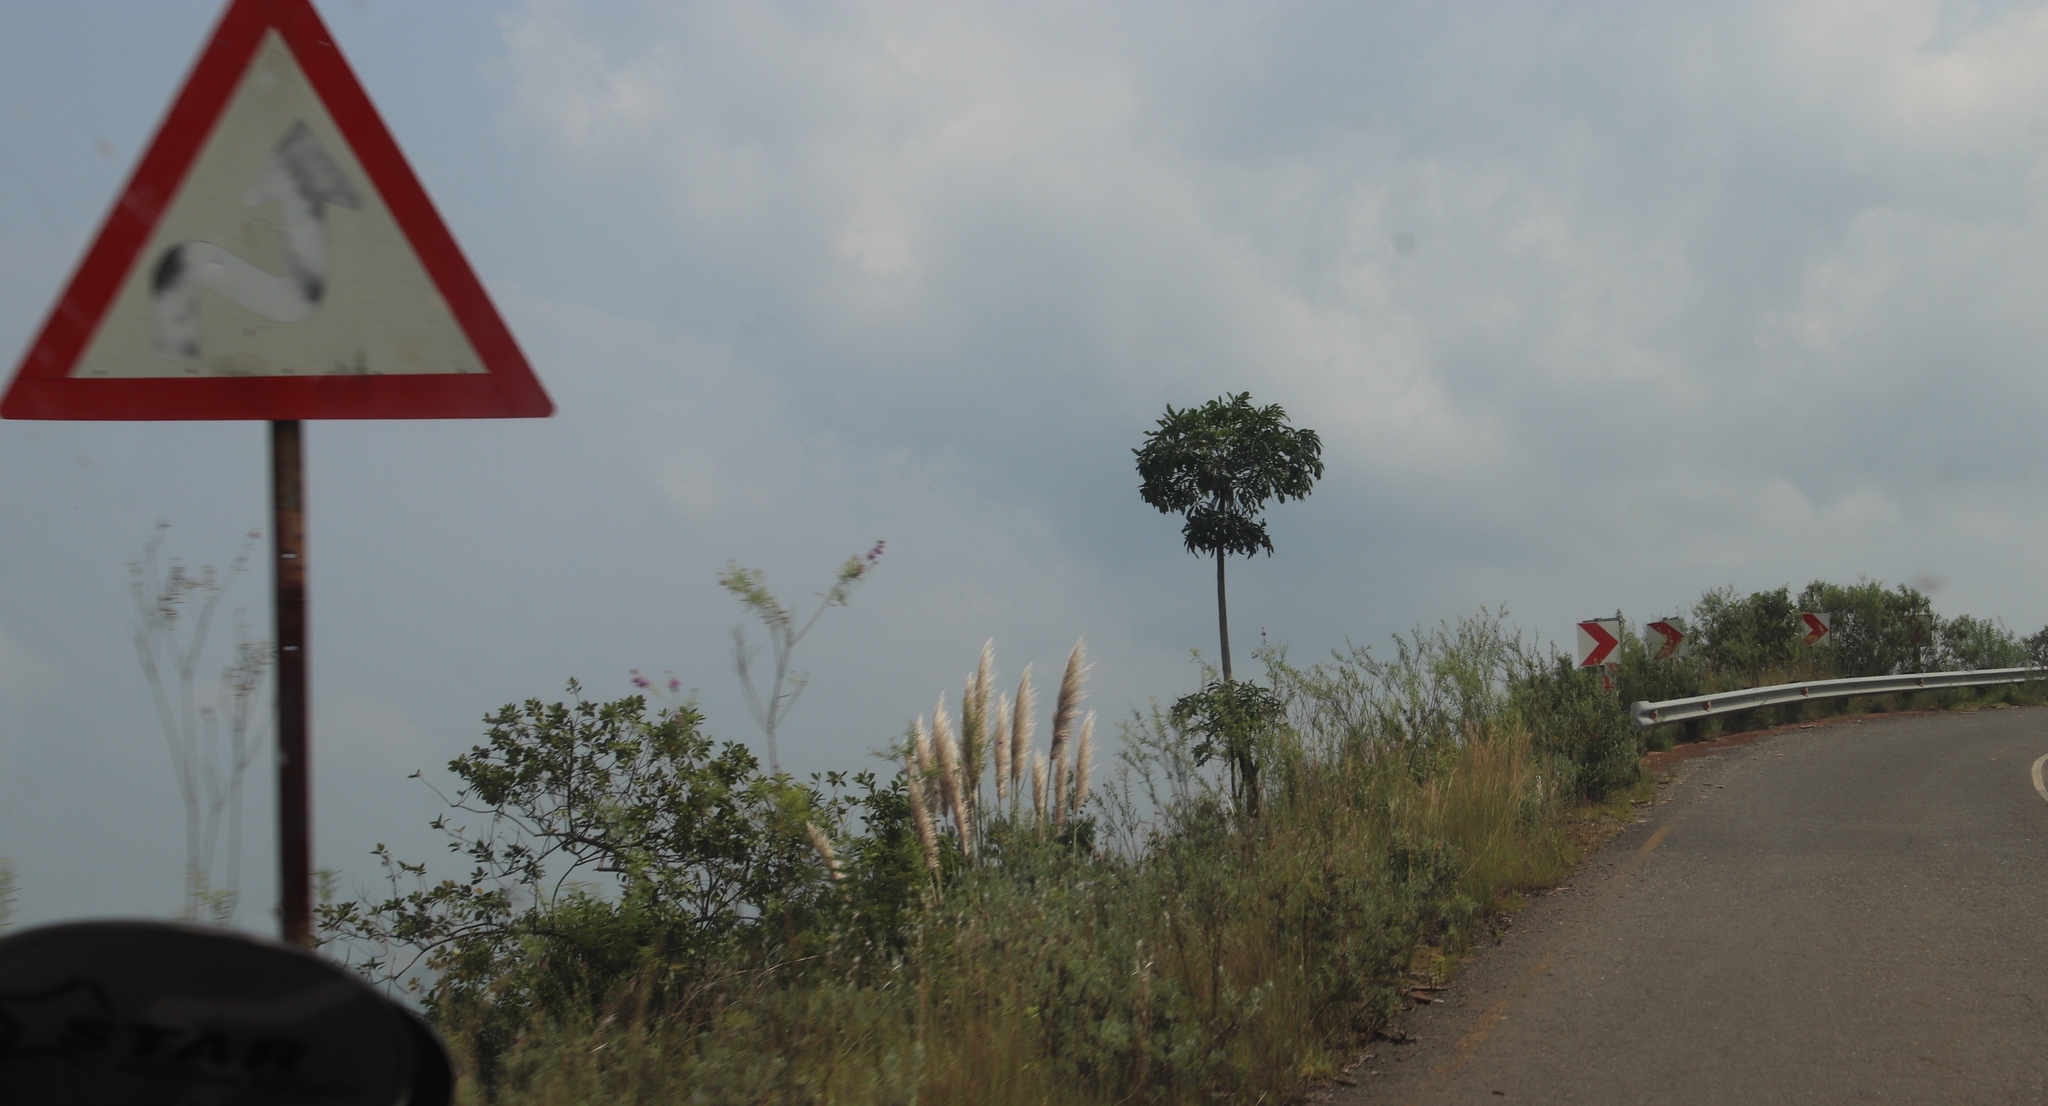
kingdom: Plantae
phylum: Tracheophyta
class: Liliopsida
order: Poales
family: Poaceae
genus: Cortaderia
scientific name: Cortaderia selloana
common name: Uruguayan pampas grass
